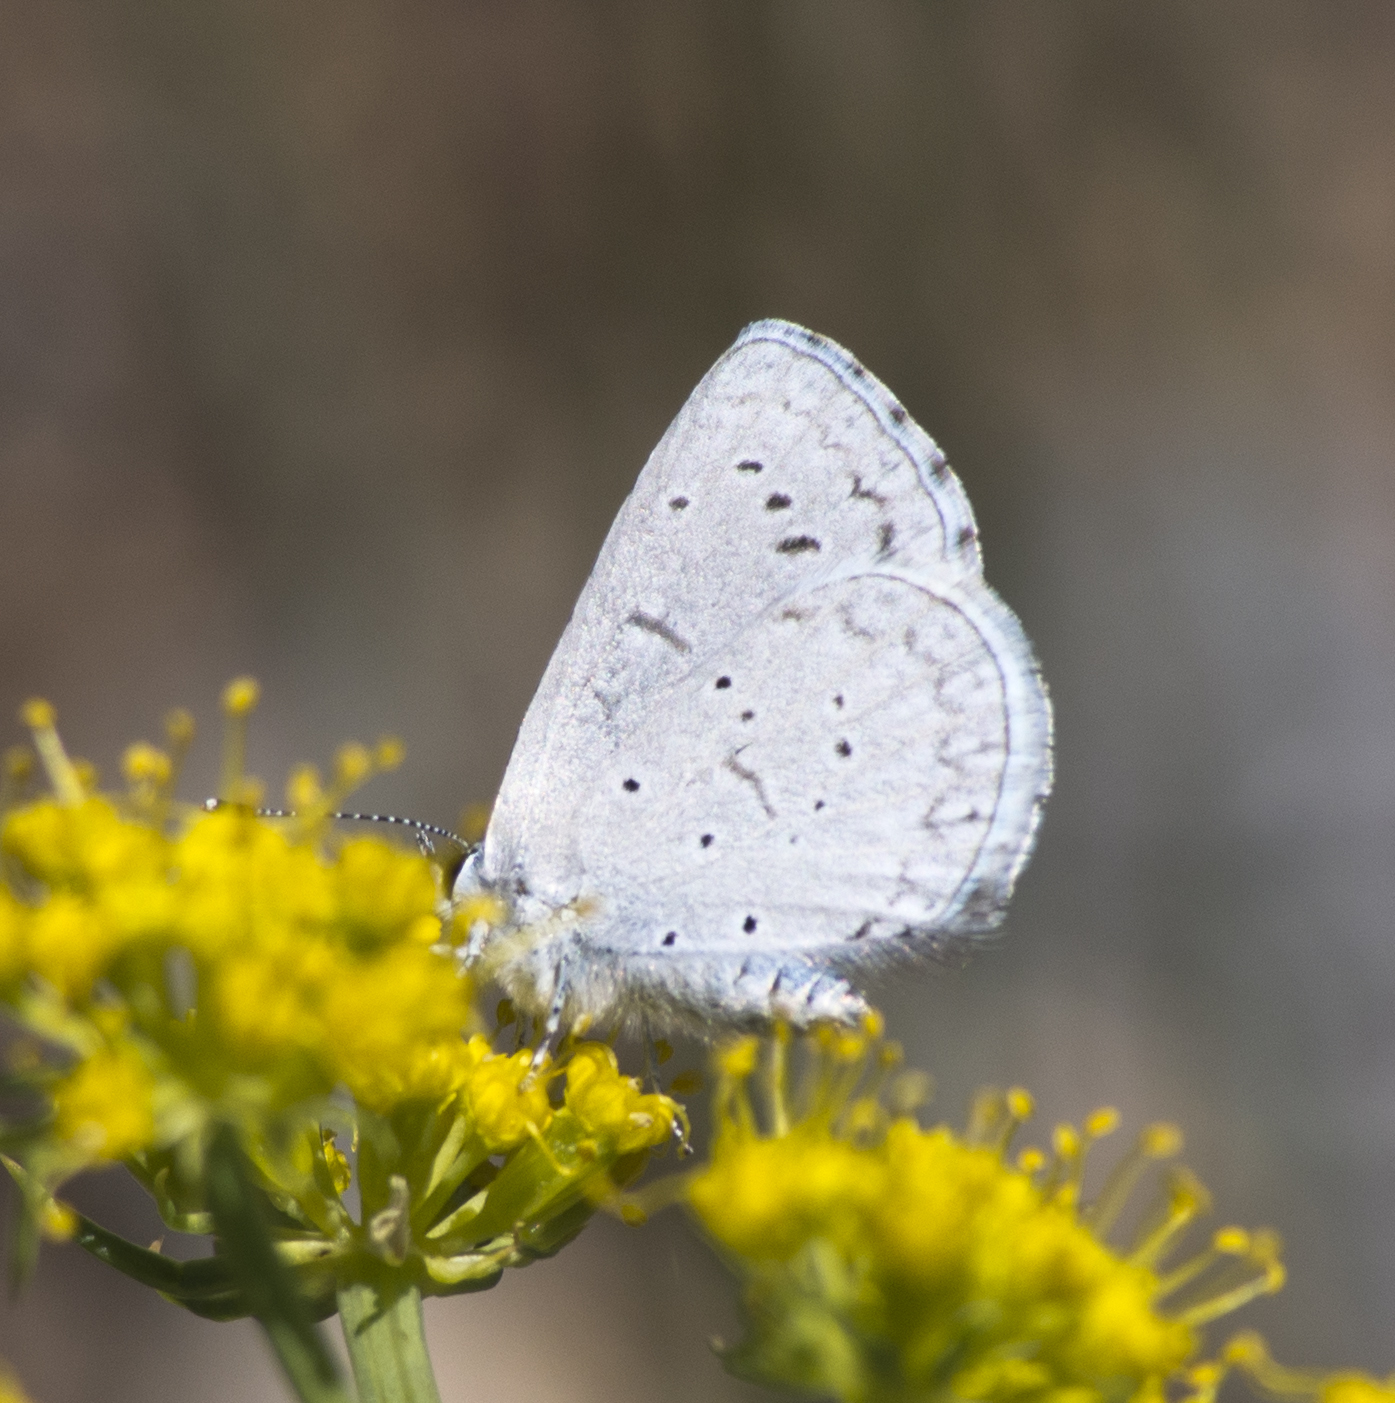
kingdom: Animalia
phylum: Arthropoda
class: Insecta
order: Lepidoptera
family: Lycaenidae
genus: Celastrina
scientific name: Celastrina ladon
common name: Spring azure
